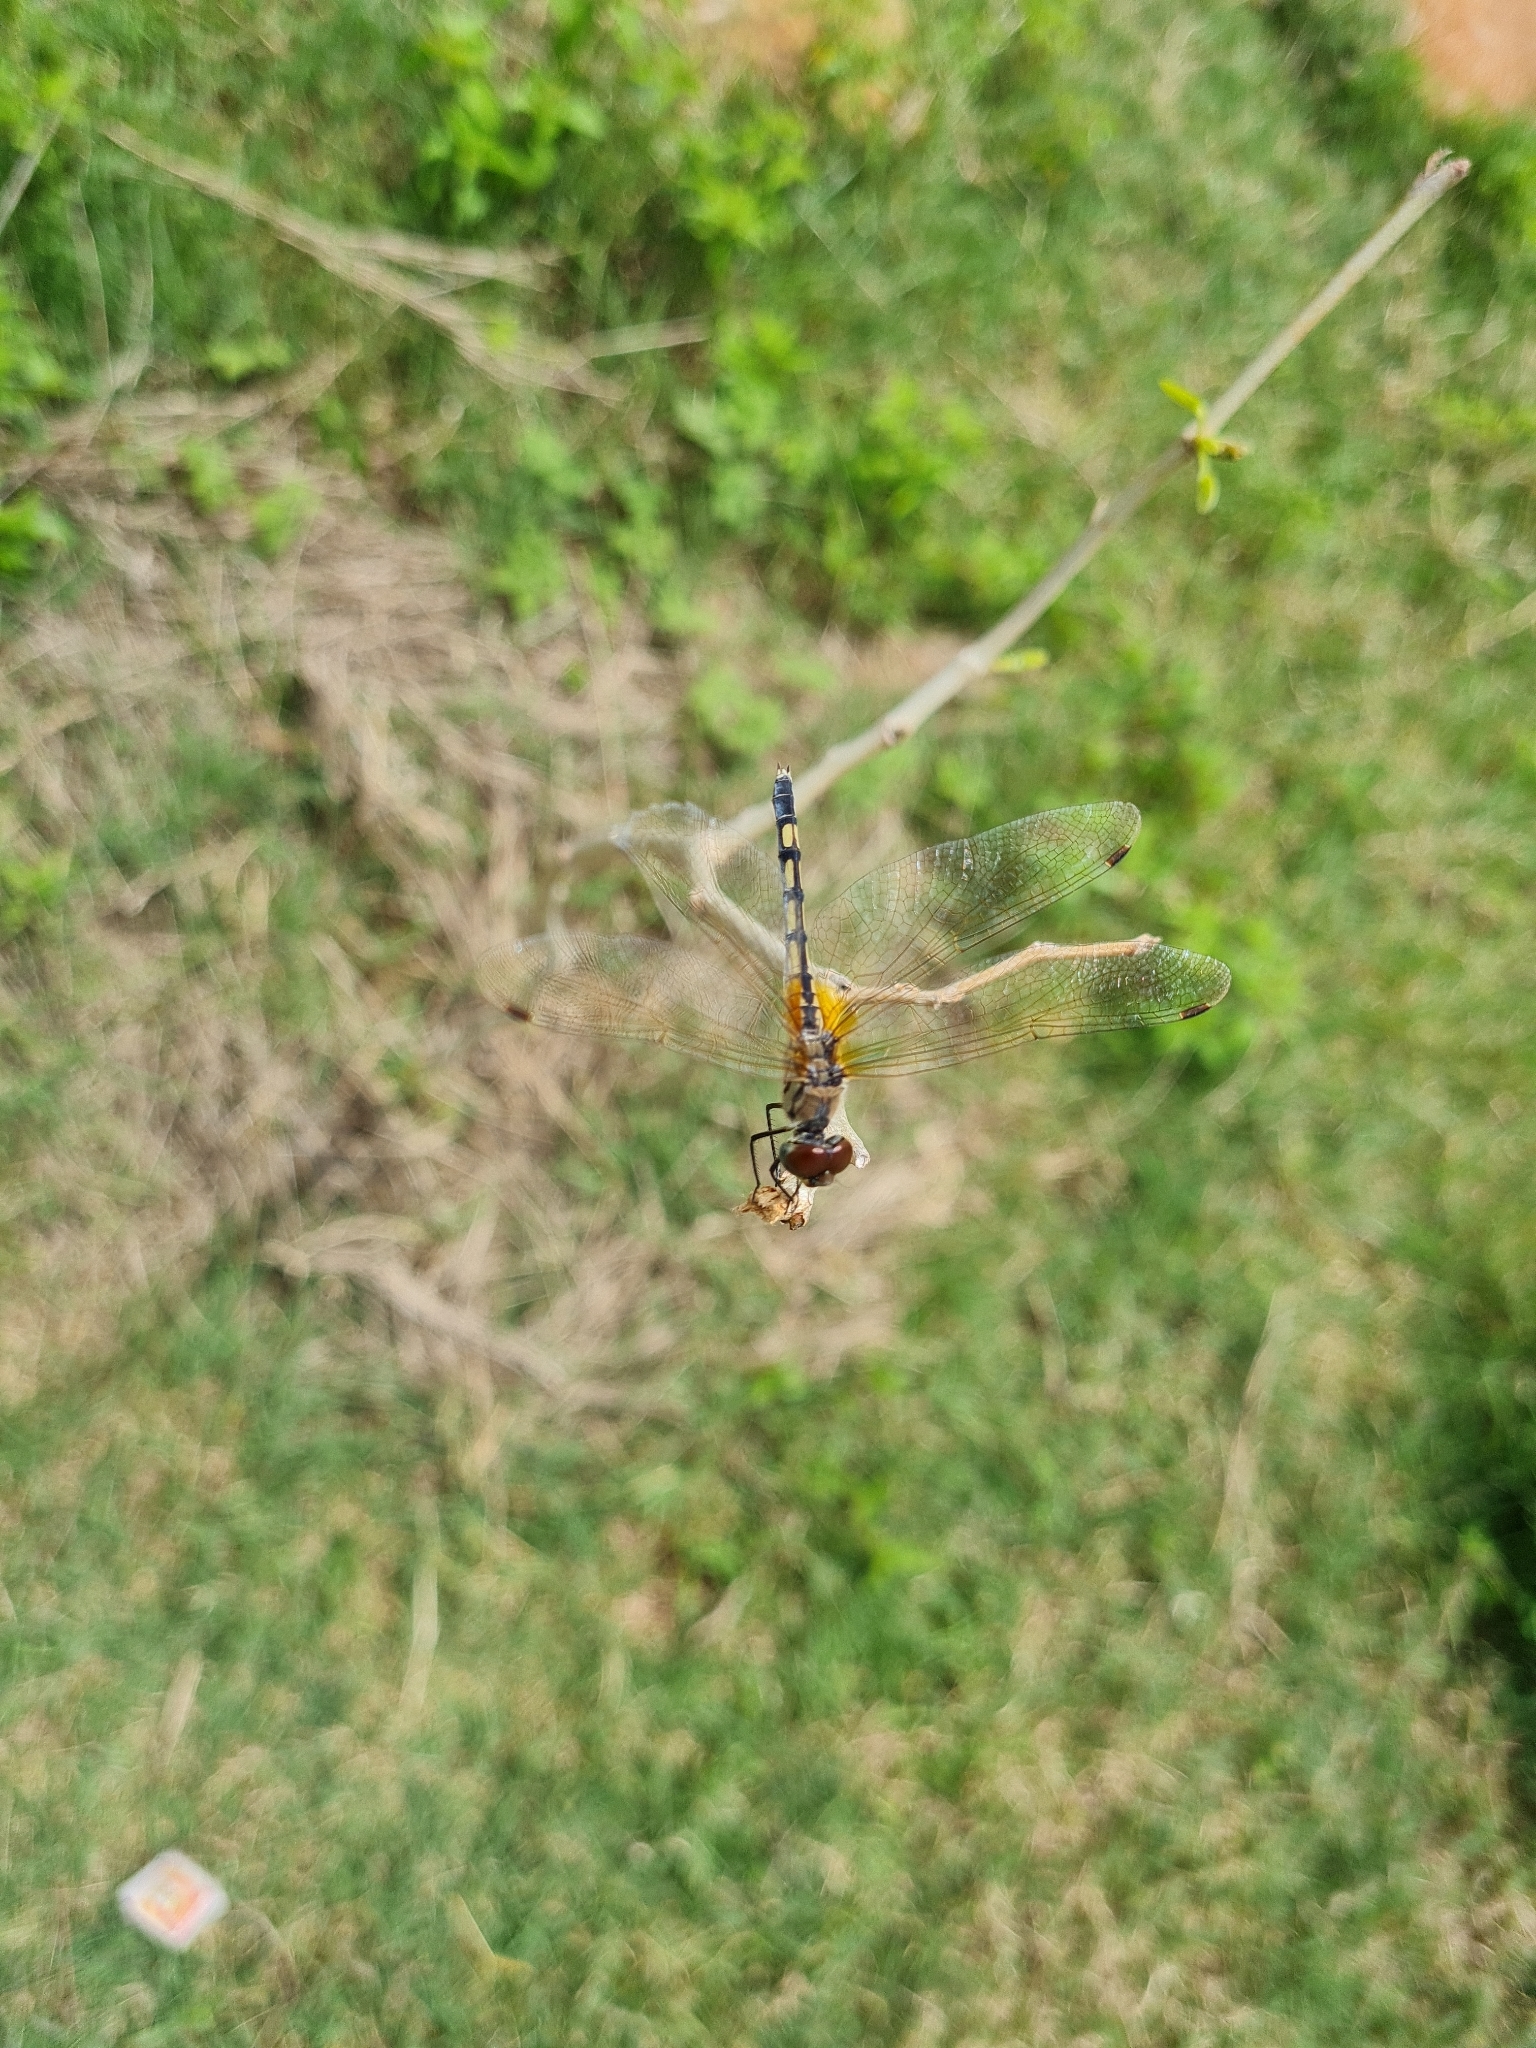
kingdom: Animalia
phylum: Arthropoda
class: Insecta
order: Odonata
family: Libellulidae
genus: Trithemis
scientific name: Trithemis pallidinervis
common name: Dancing dropwing
